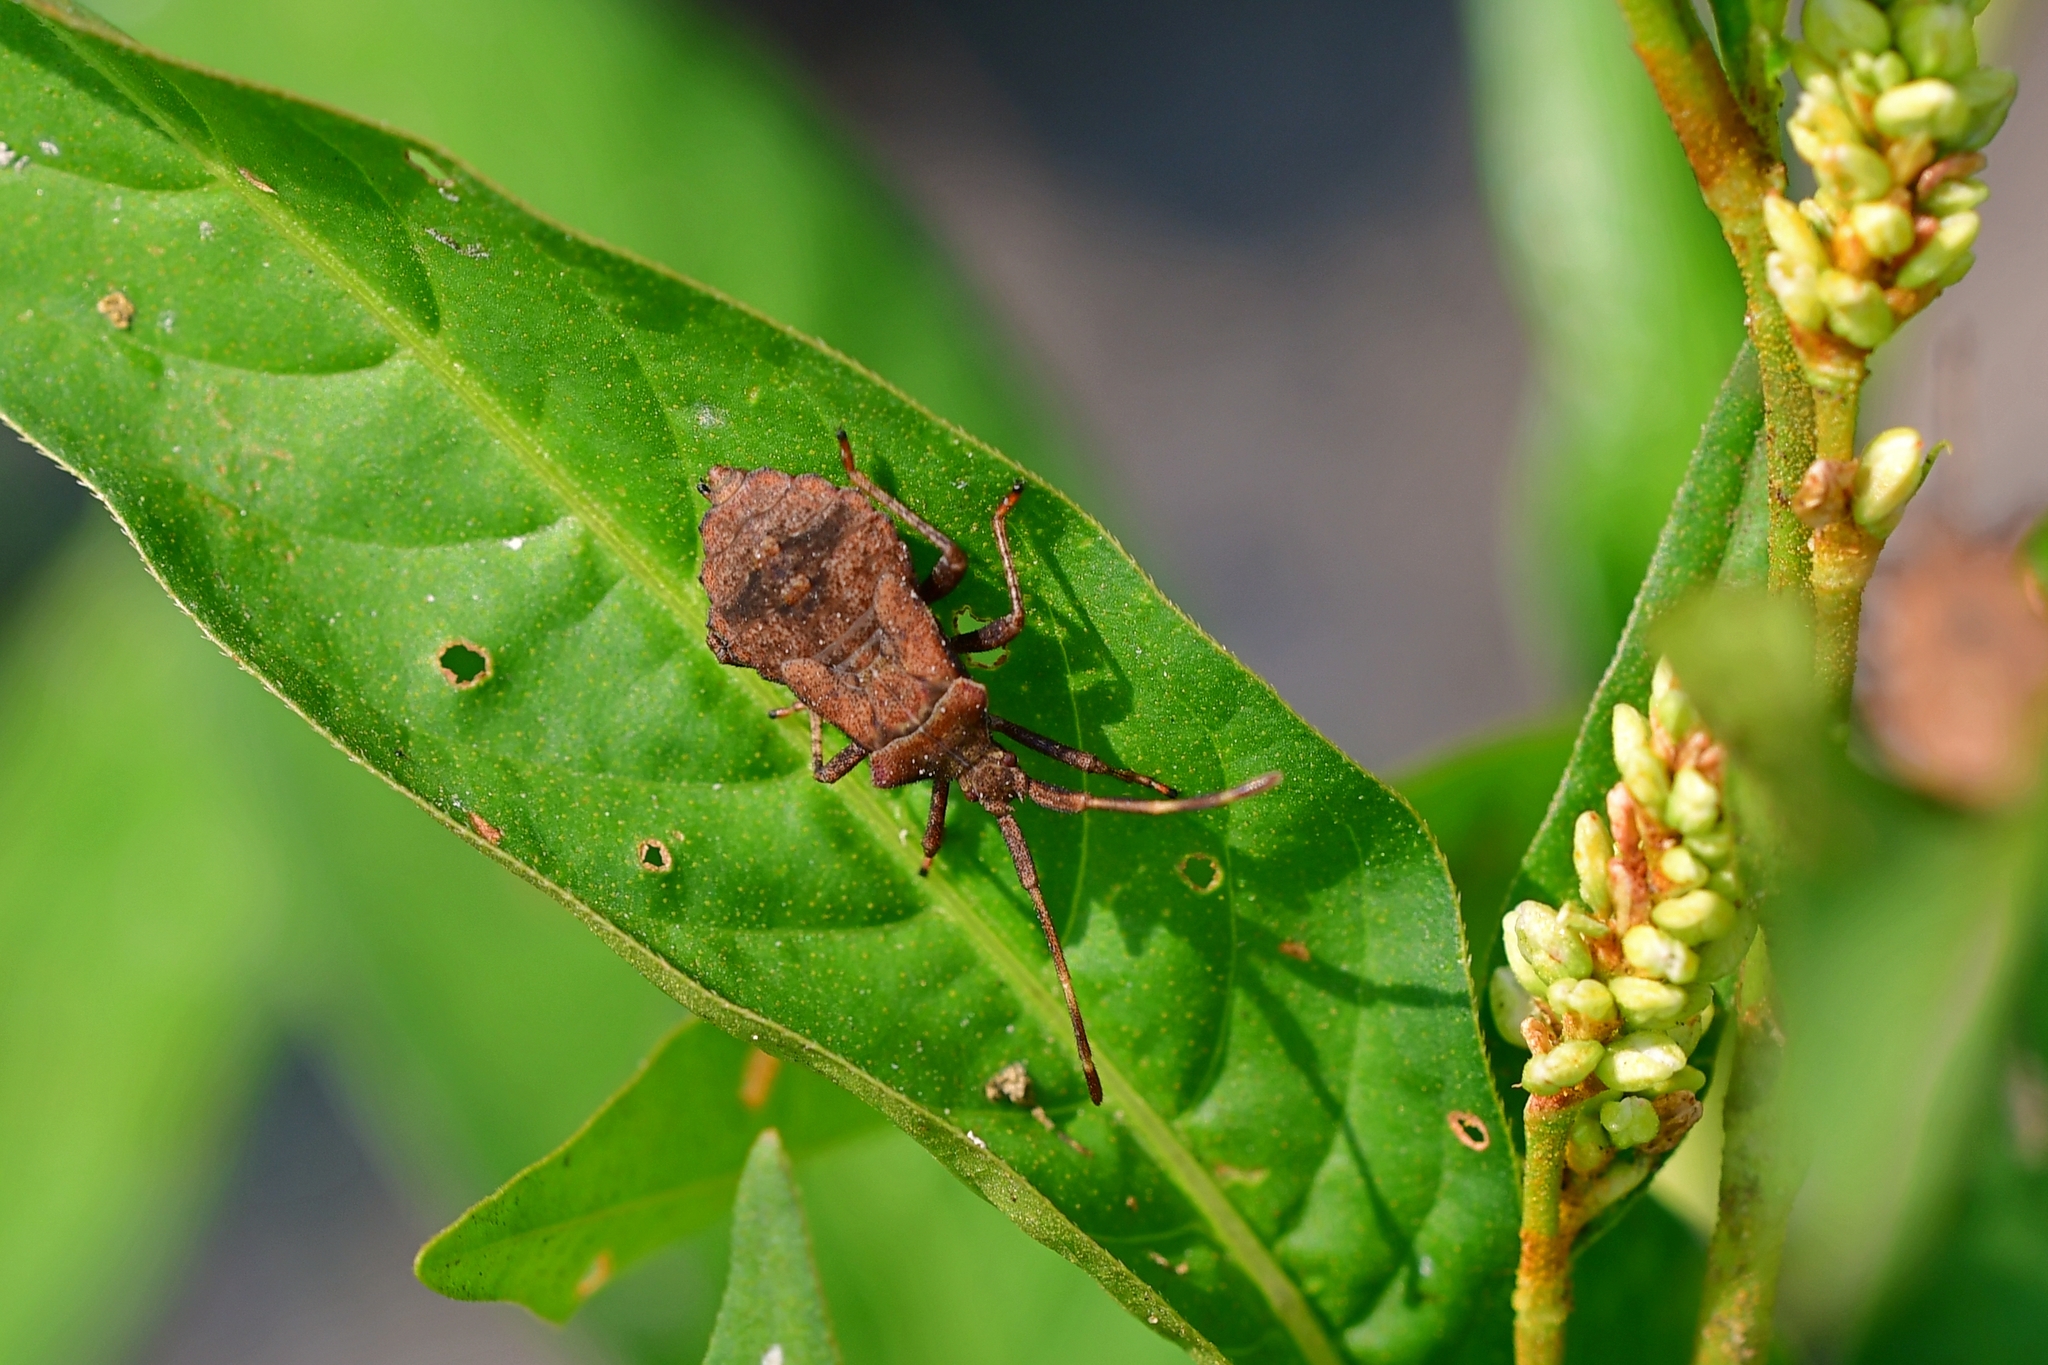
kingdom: Animalia
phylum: Arthropoda
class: Insecta
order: Hemiptera
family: Coreidae
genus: Coreus
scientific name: Coreus marginatus
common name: Dock bug
